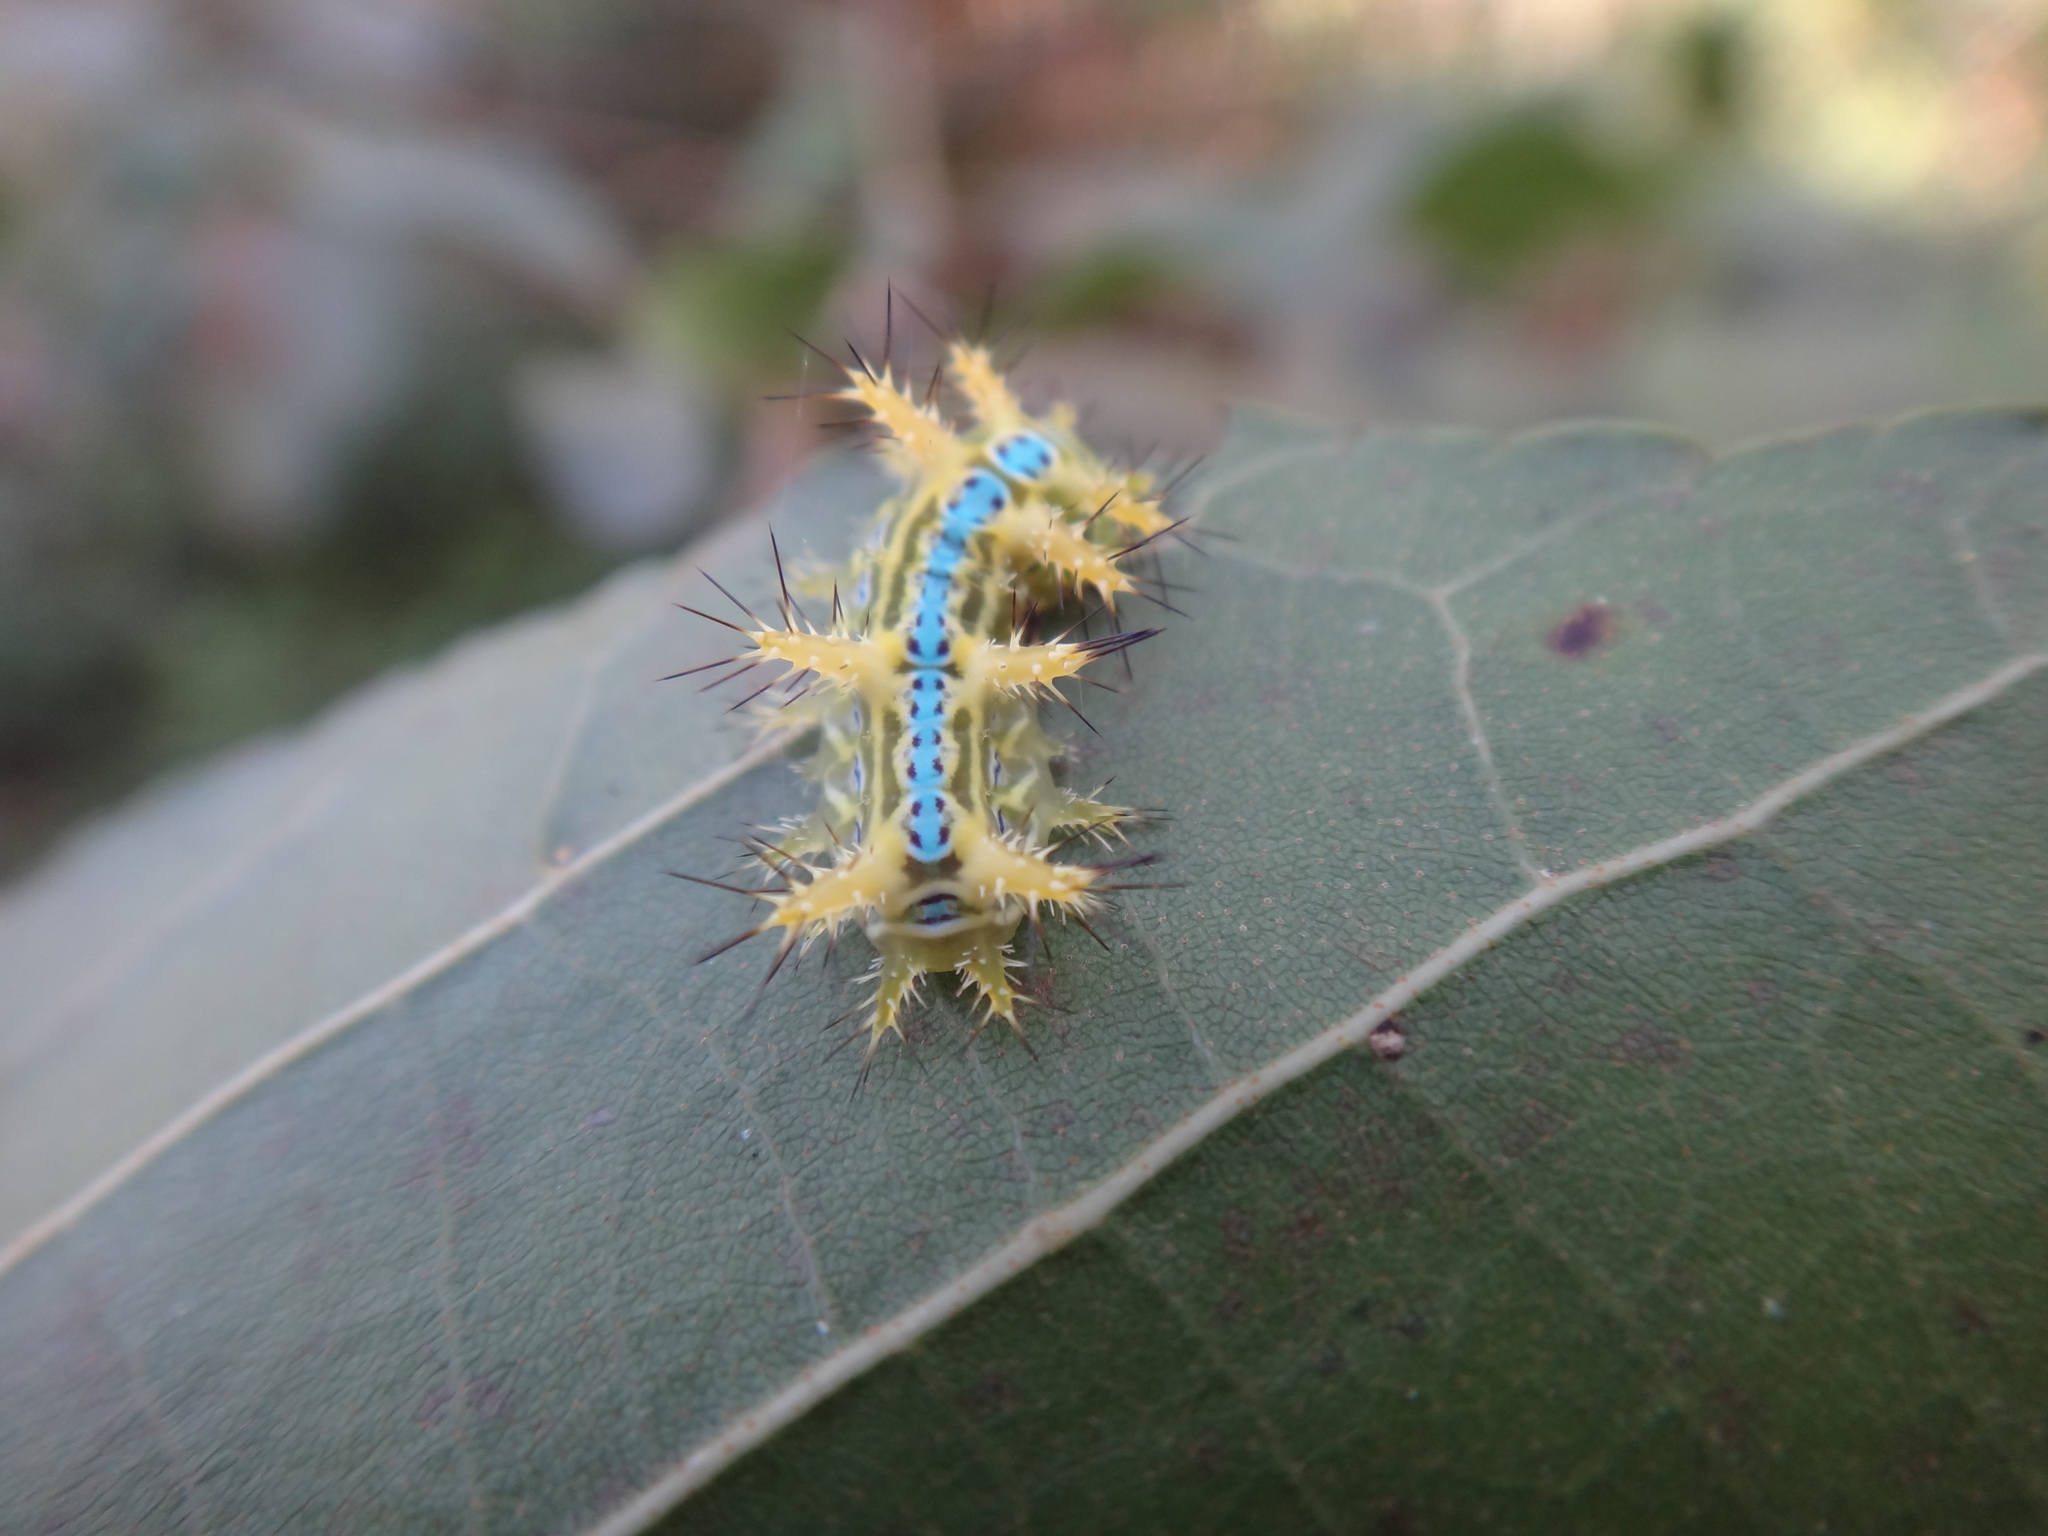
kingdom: Animalia
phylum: Arthropoda
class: Insecta
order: Lepidoptera
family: Limacodidae
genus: Phlossa
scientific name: Phlossa conjuncta
